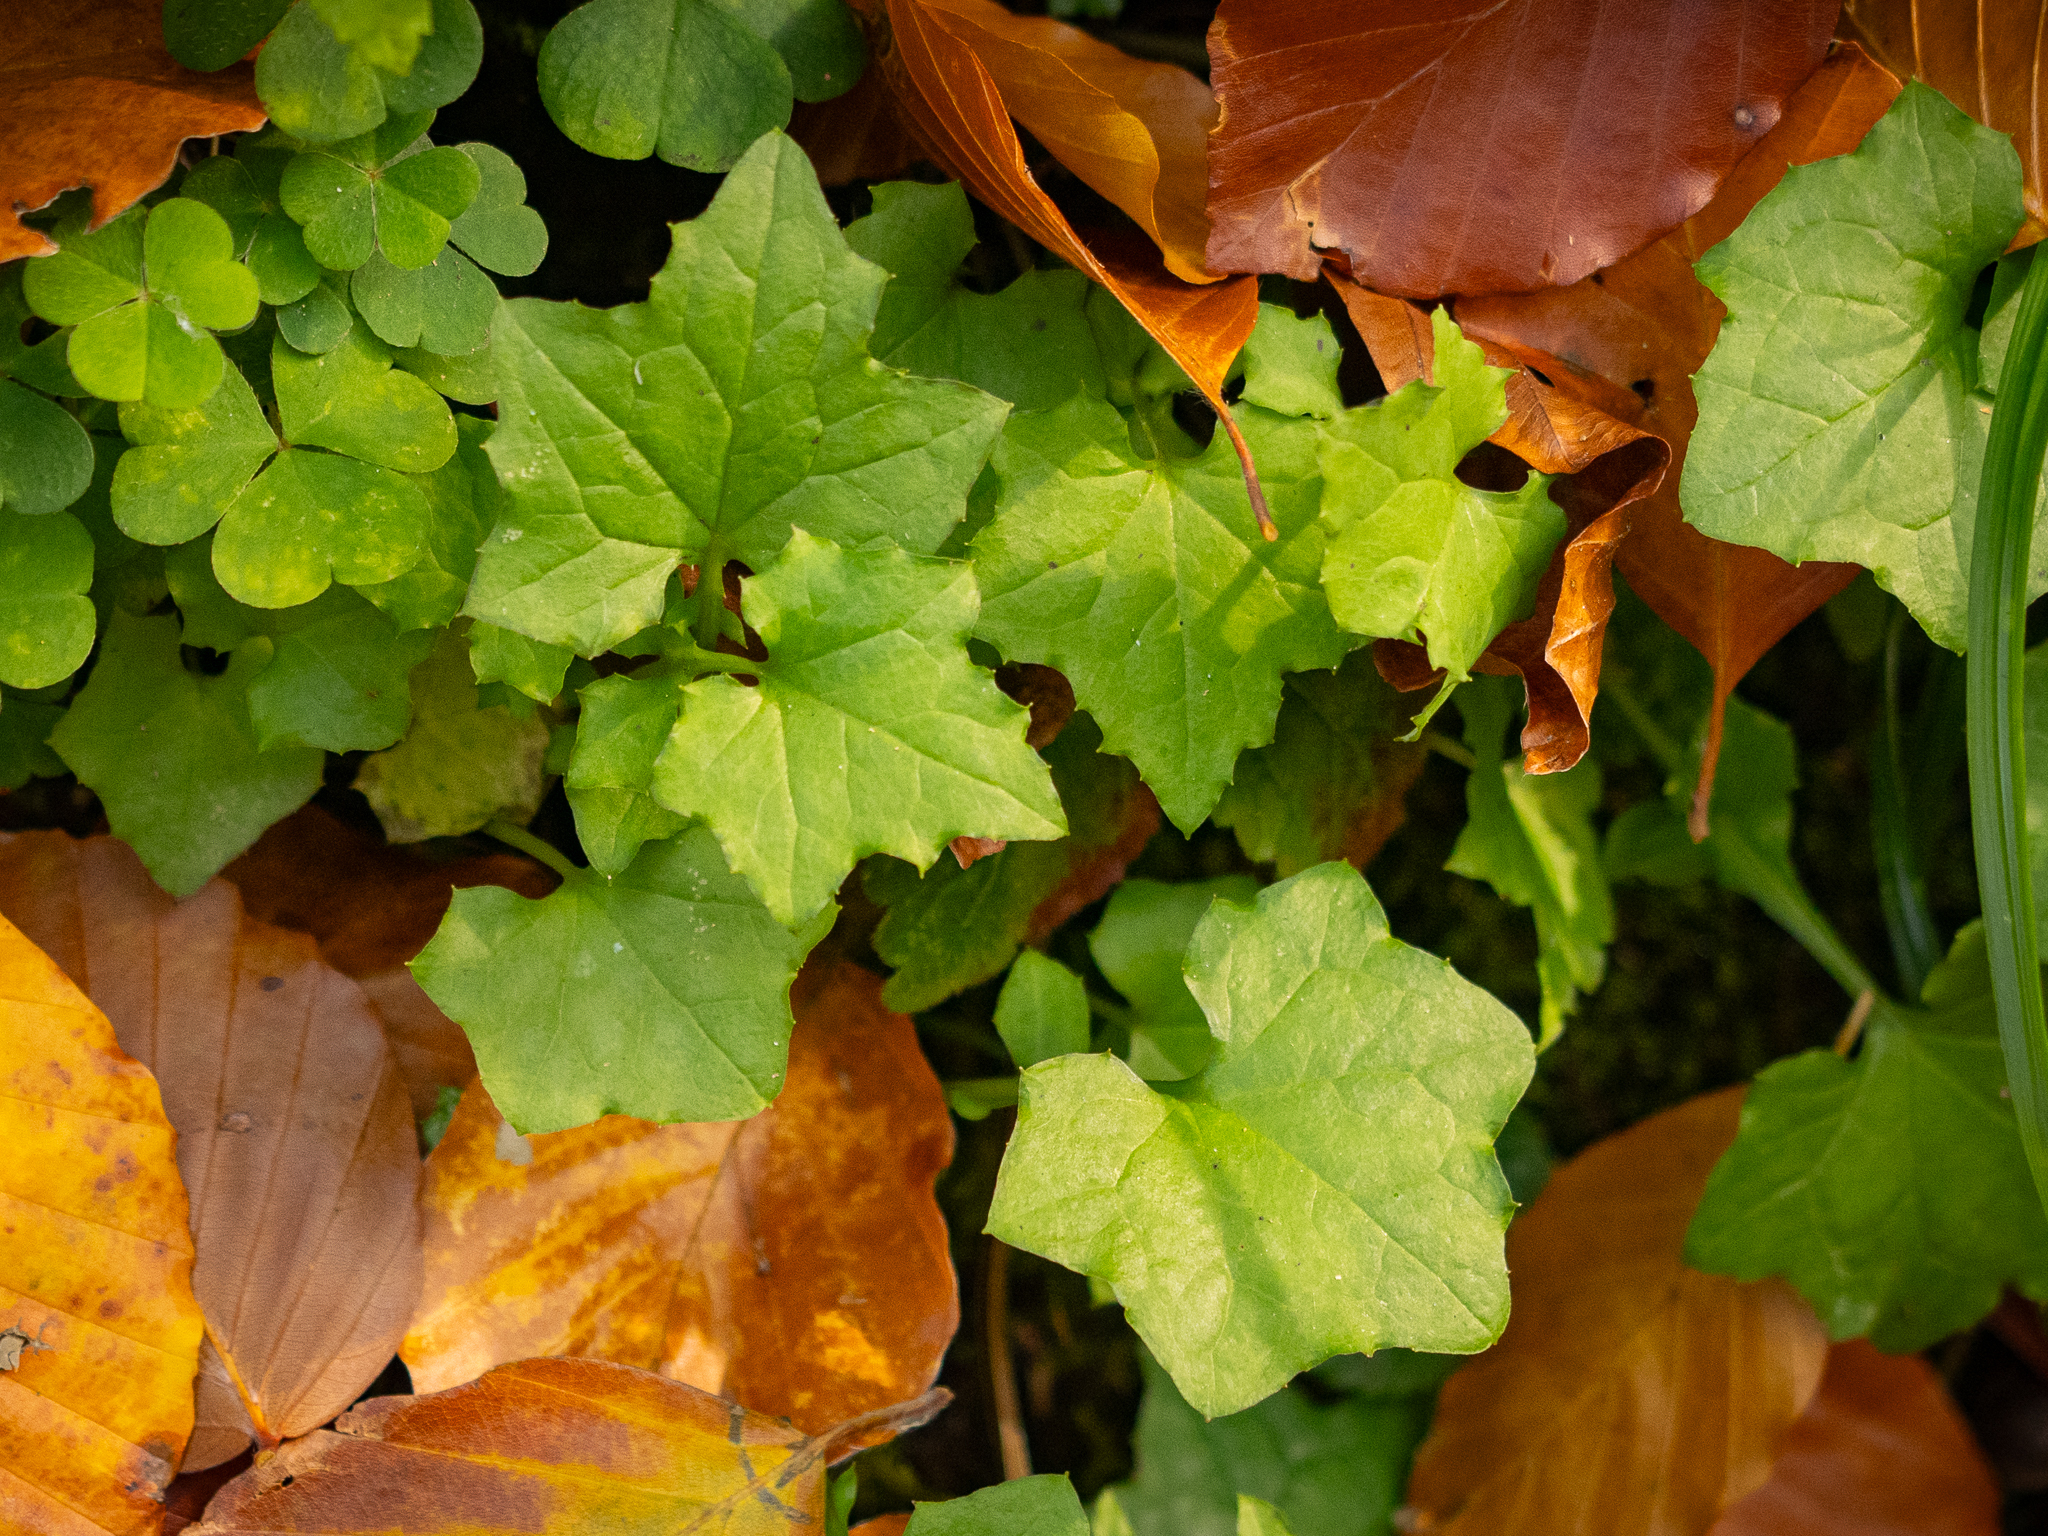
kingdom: Plantae
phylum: Tracheophyta
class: Magnoliopsida
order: Asterales
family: Asteraceae
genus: Mycelis
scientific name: Mycelis muralis
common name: Wall lettuce
